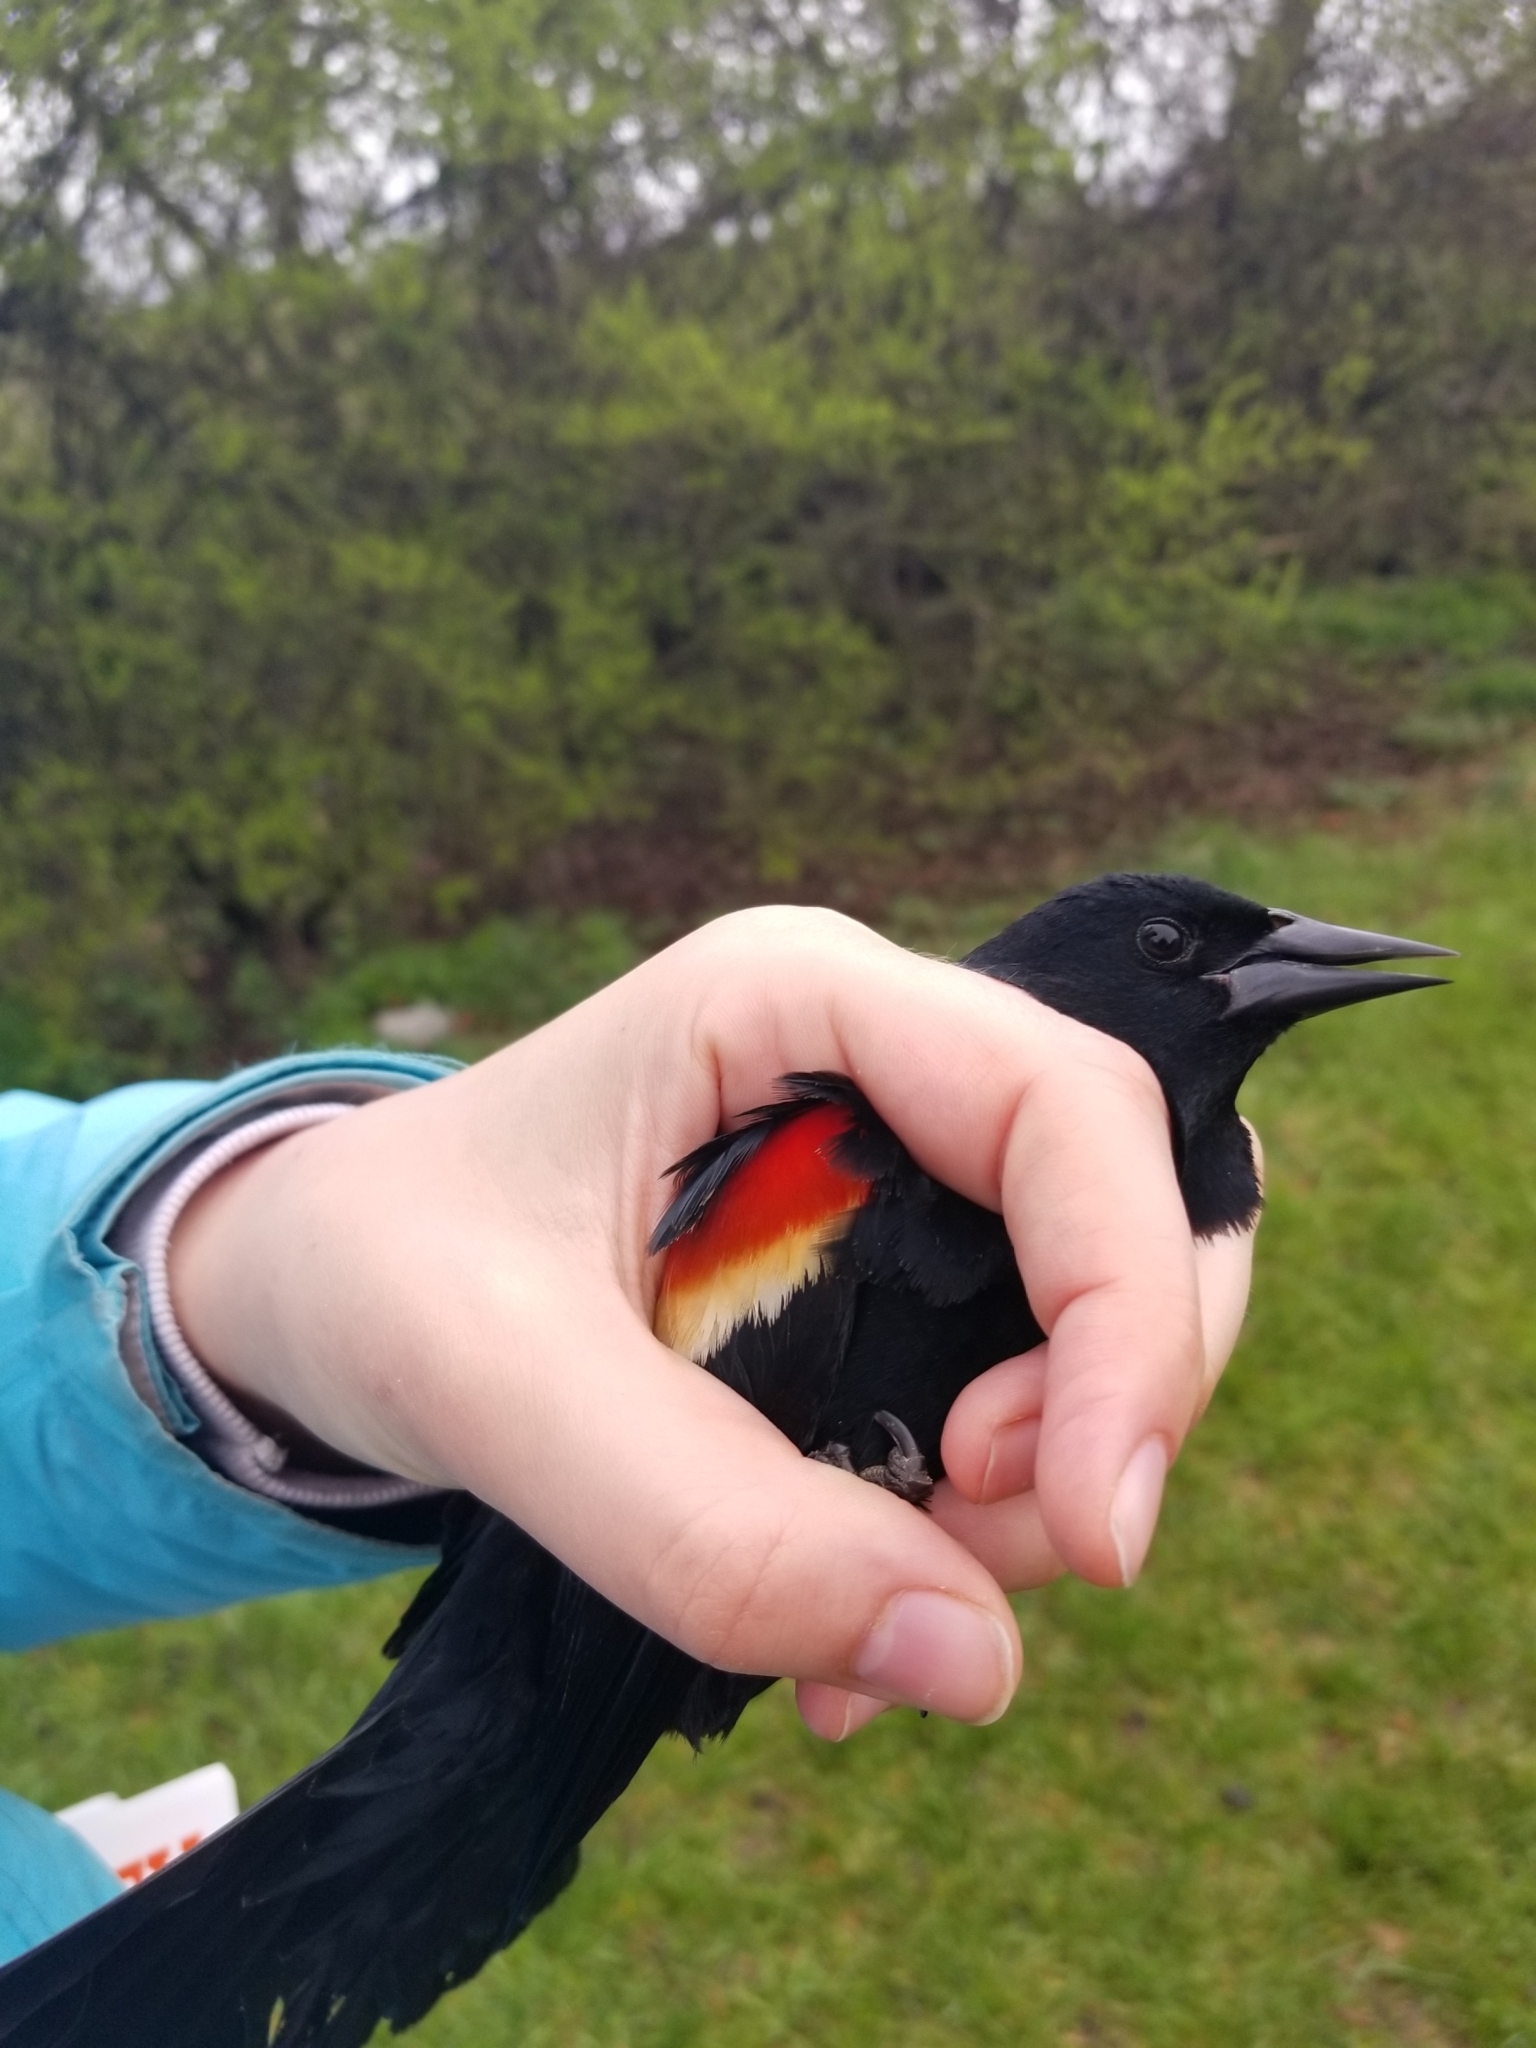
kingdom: Animalia
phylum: Chordata
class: Aves
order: Passeriformes
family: Icteridae
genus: Agelaius
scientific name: Agelaius phoeniceus
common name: Red-winged blackbird
